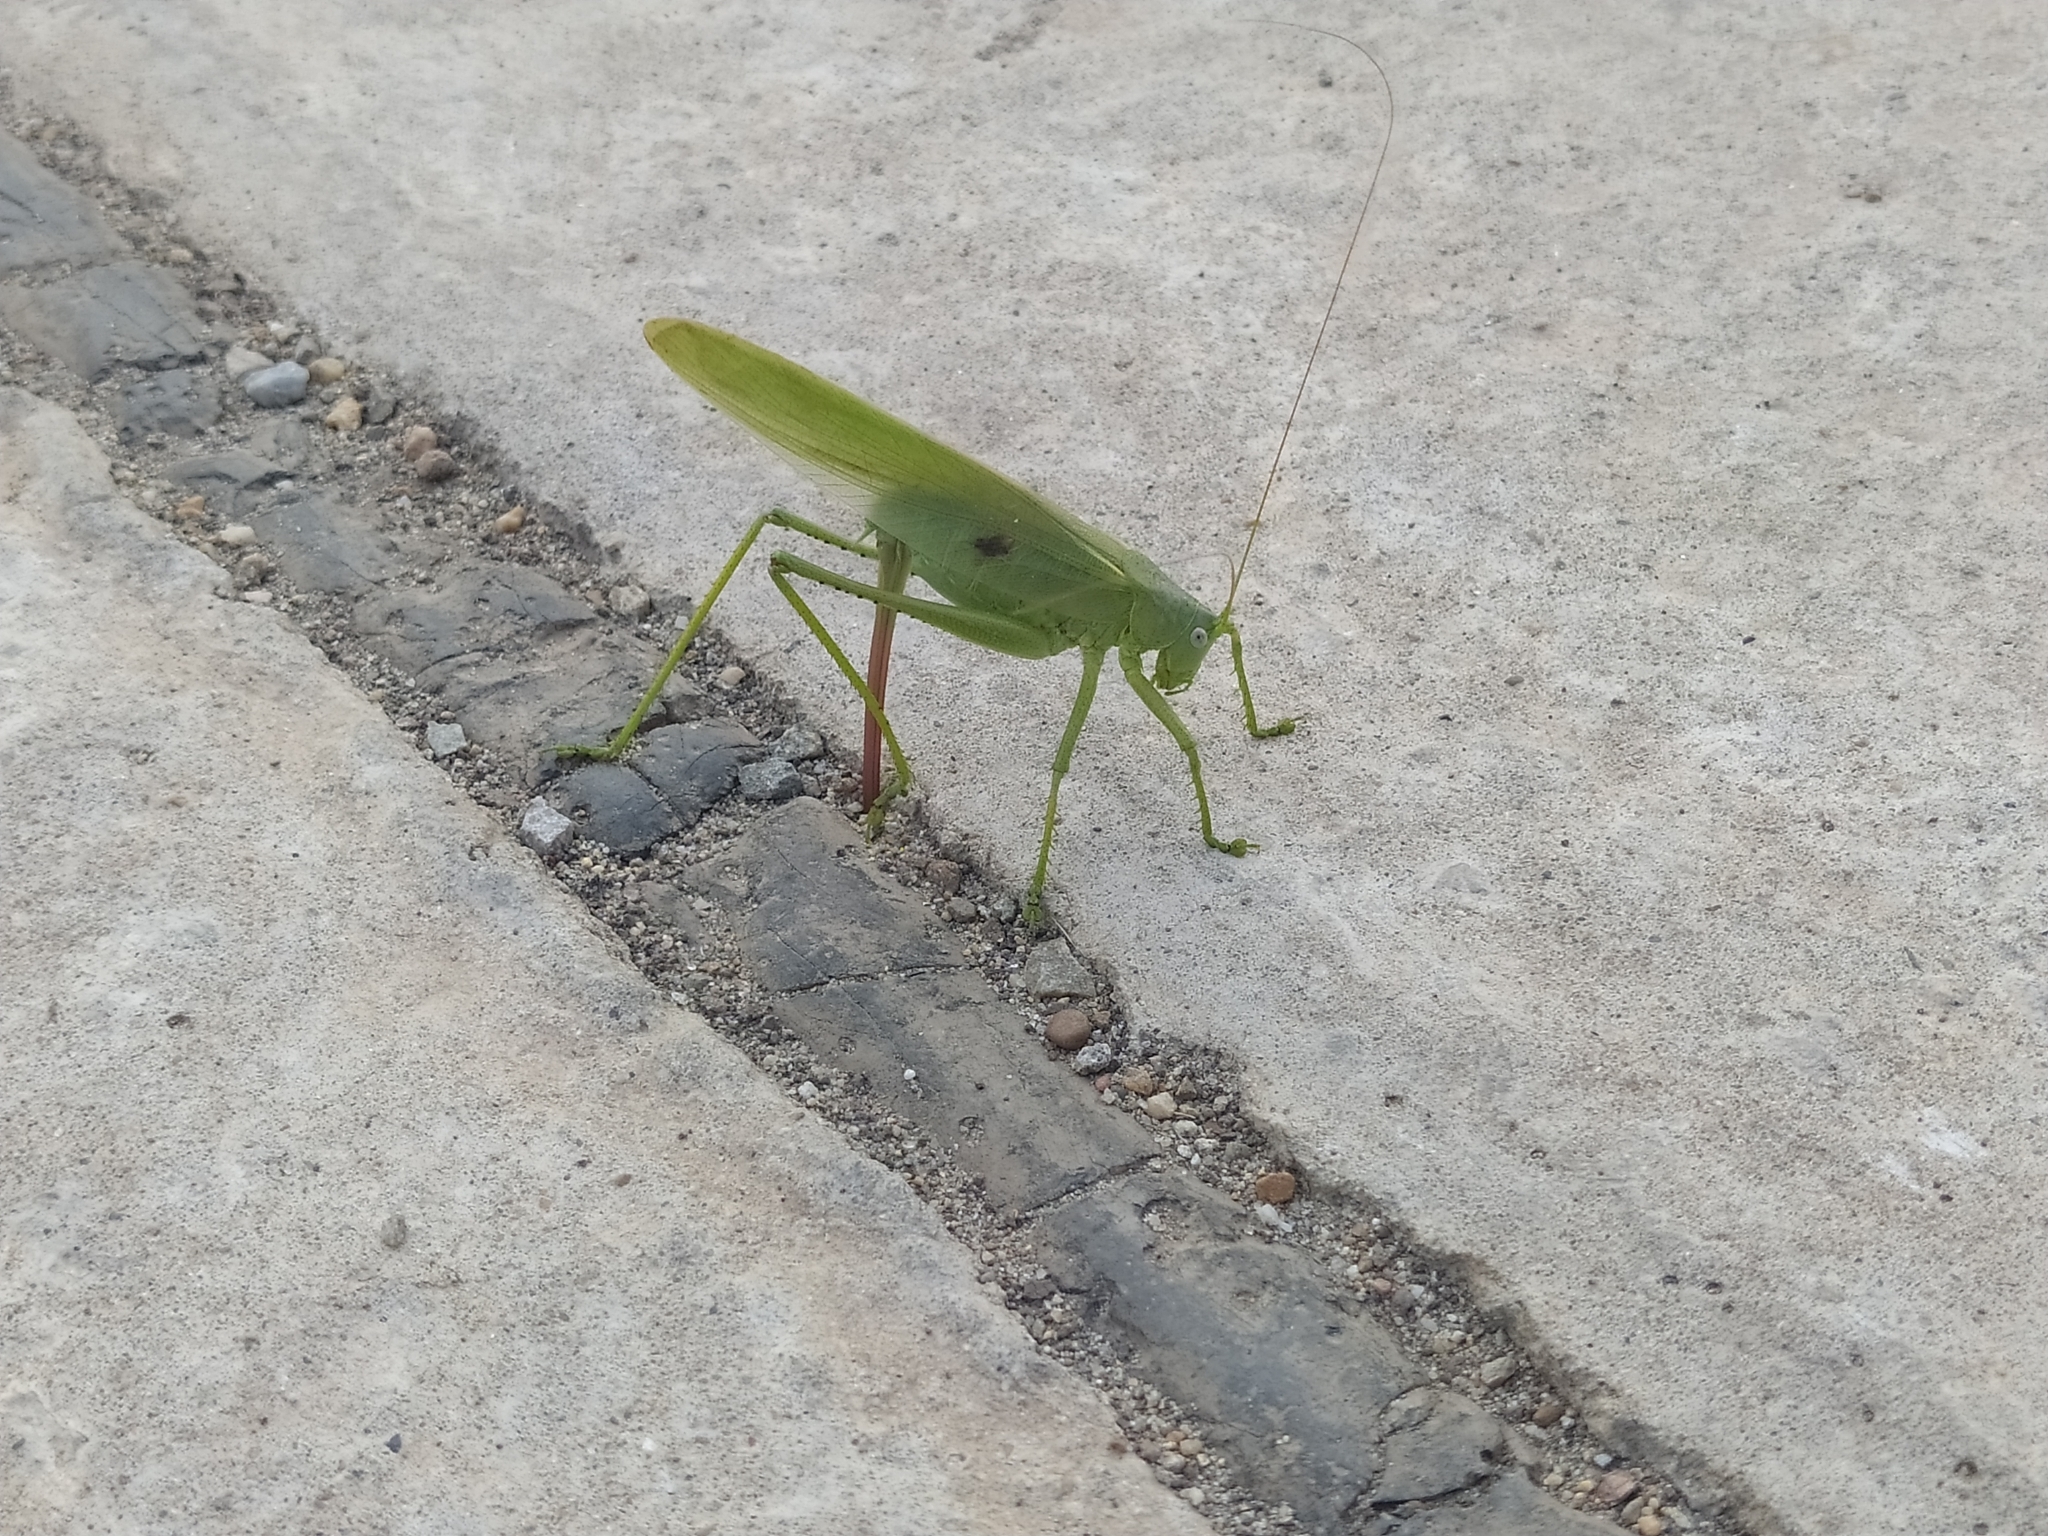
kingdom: Animalia
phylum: Arthropoda
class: Insecta
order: Orthoptera
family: Tettigoniidae
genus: Tettigonia
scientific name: Tettigonia caudata
